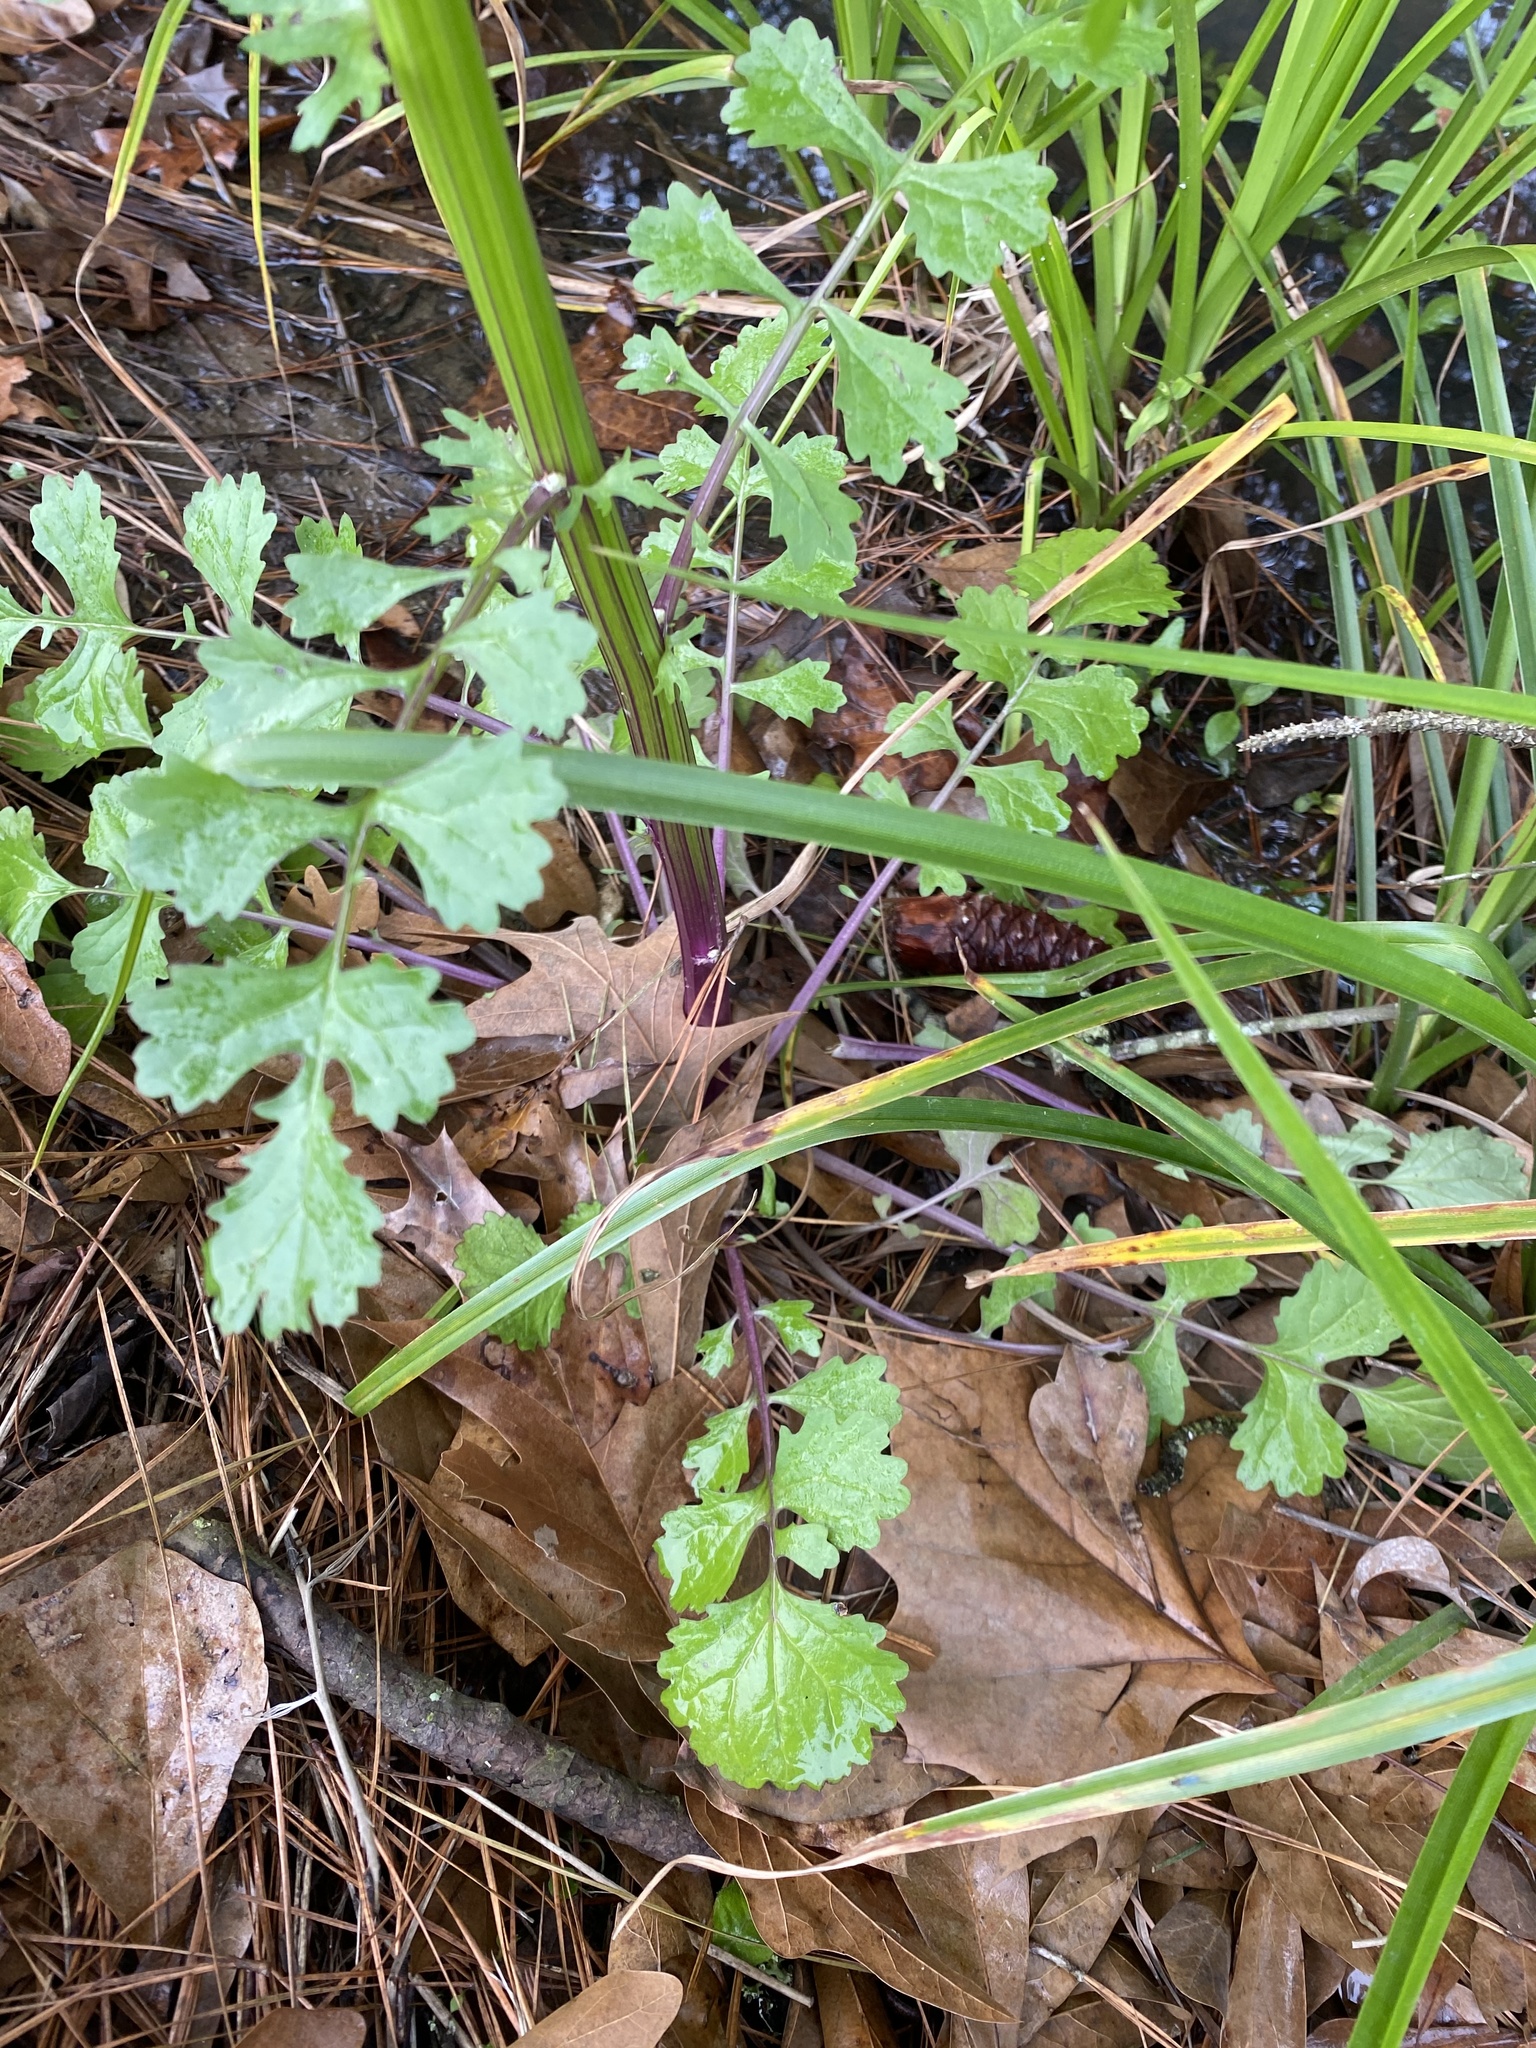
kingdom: Plantae
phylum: Tracheophyta
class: Magnoliopsida
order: Asterales
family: Asteraceae
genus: Packera
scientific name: Packera glabella
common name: Butterweed
